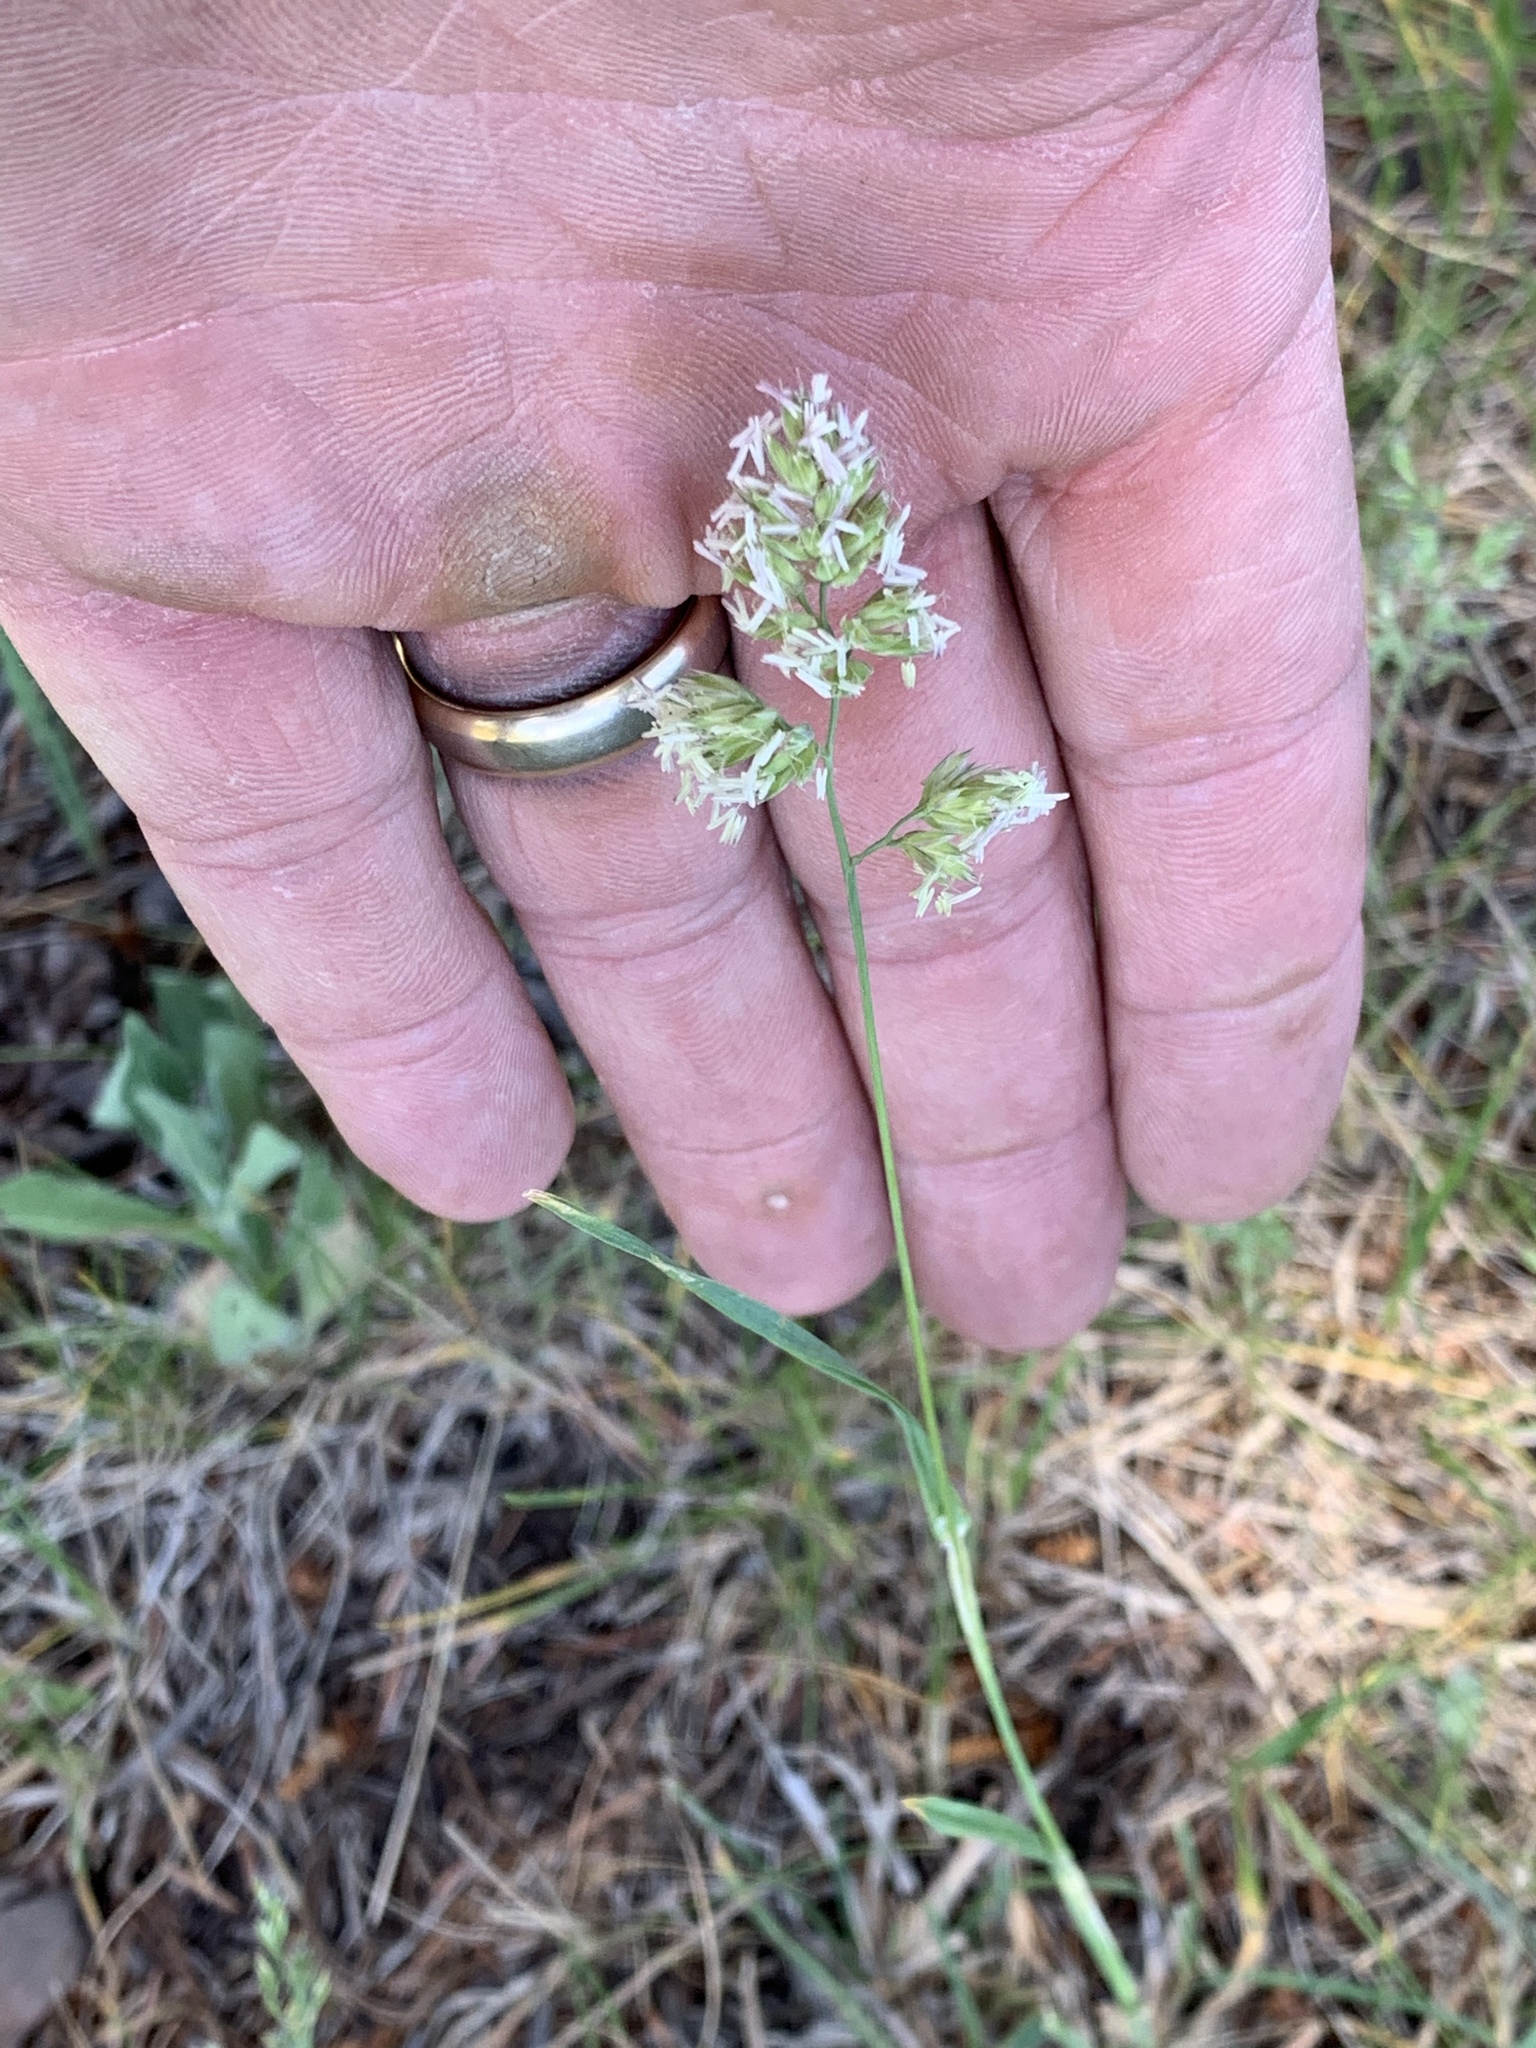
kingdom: Plantae
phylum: Tracheophyta
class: Liliopsida
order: Poales
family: Poaceae
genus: Dactylis
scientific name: Dactylis glomerata
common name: Orchardgrass
